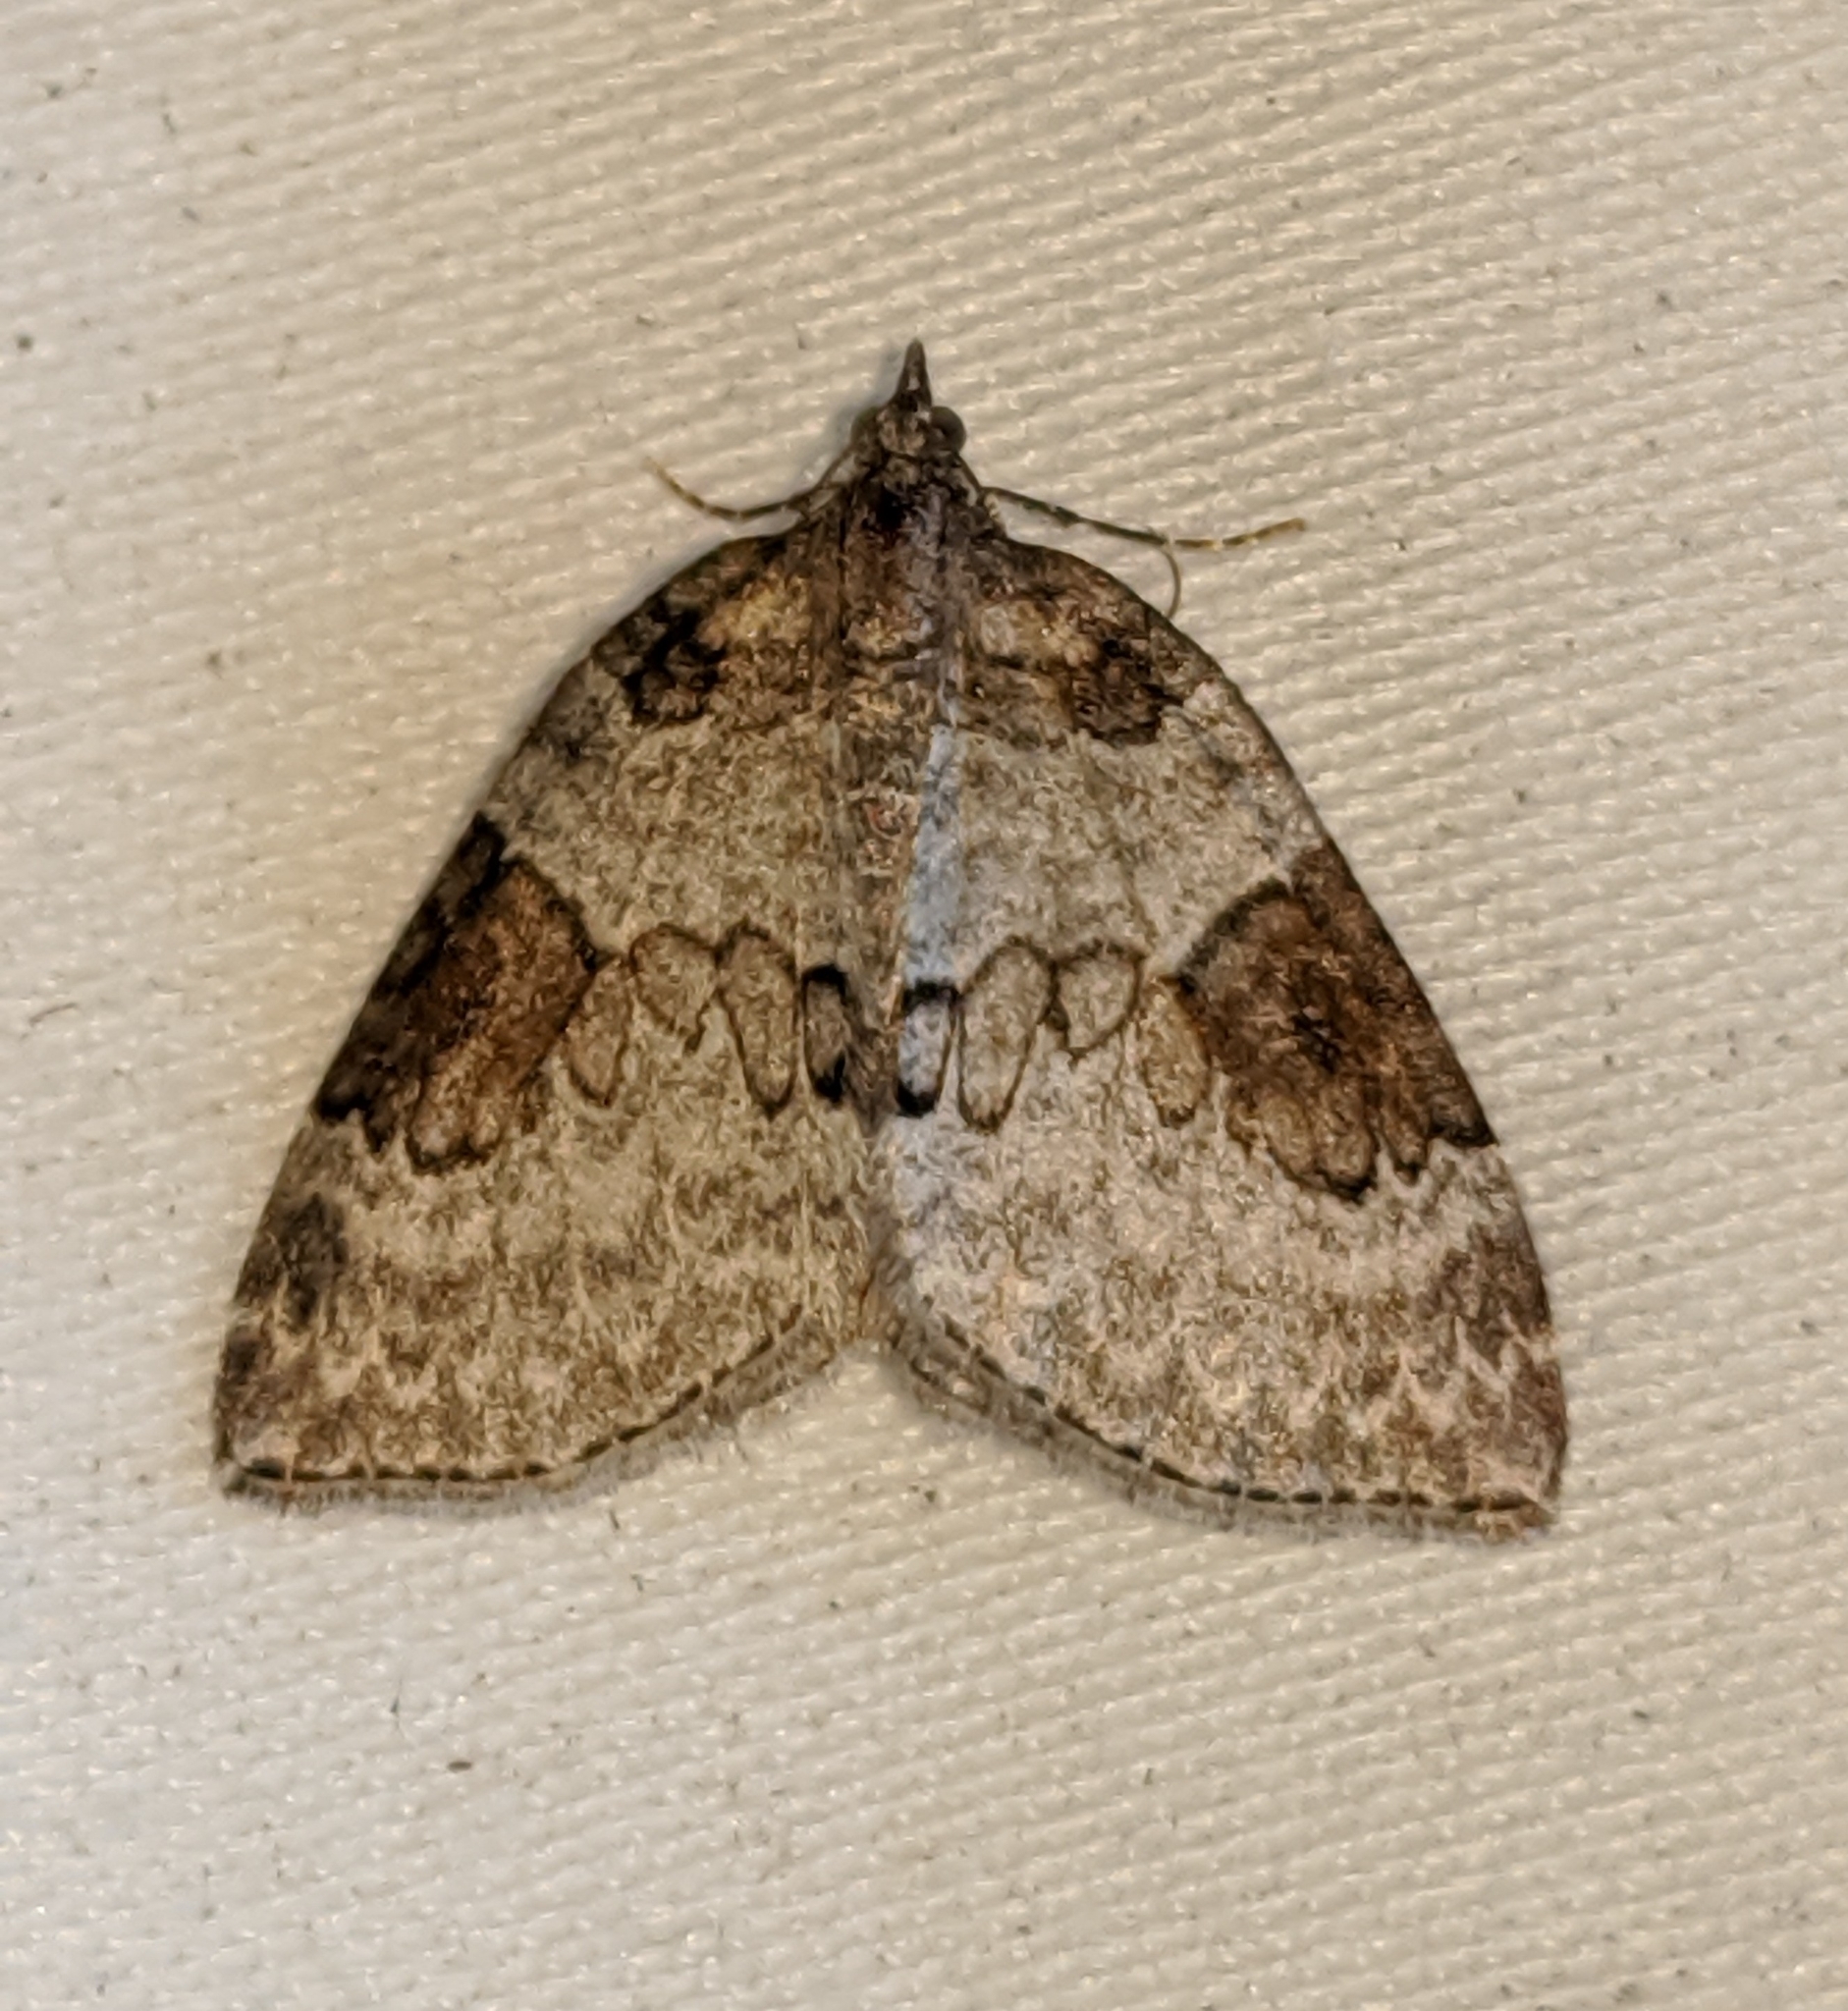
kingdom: Animalia
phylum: Arthropoda
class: Insecta
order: Lepidoptera
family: Geometridae
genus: Plemyria
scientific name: Plemyria georgii
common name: George's carpet moth
